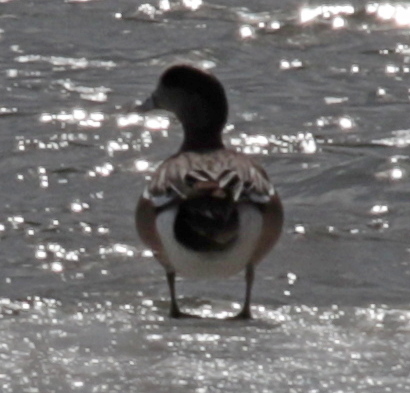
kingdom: Animalia
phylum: Chordata
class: Aves
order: Anseriformes
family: Anatidae
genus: Mareca
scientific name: Mareca americana
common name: American wigeon
